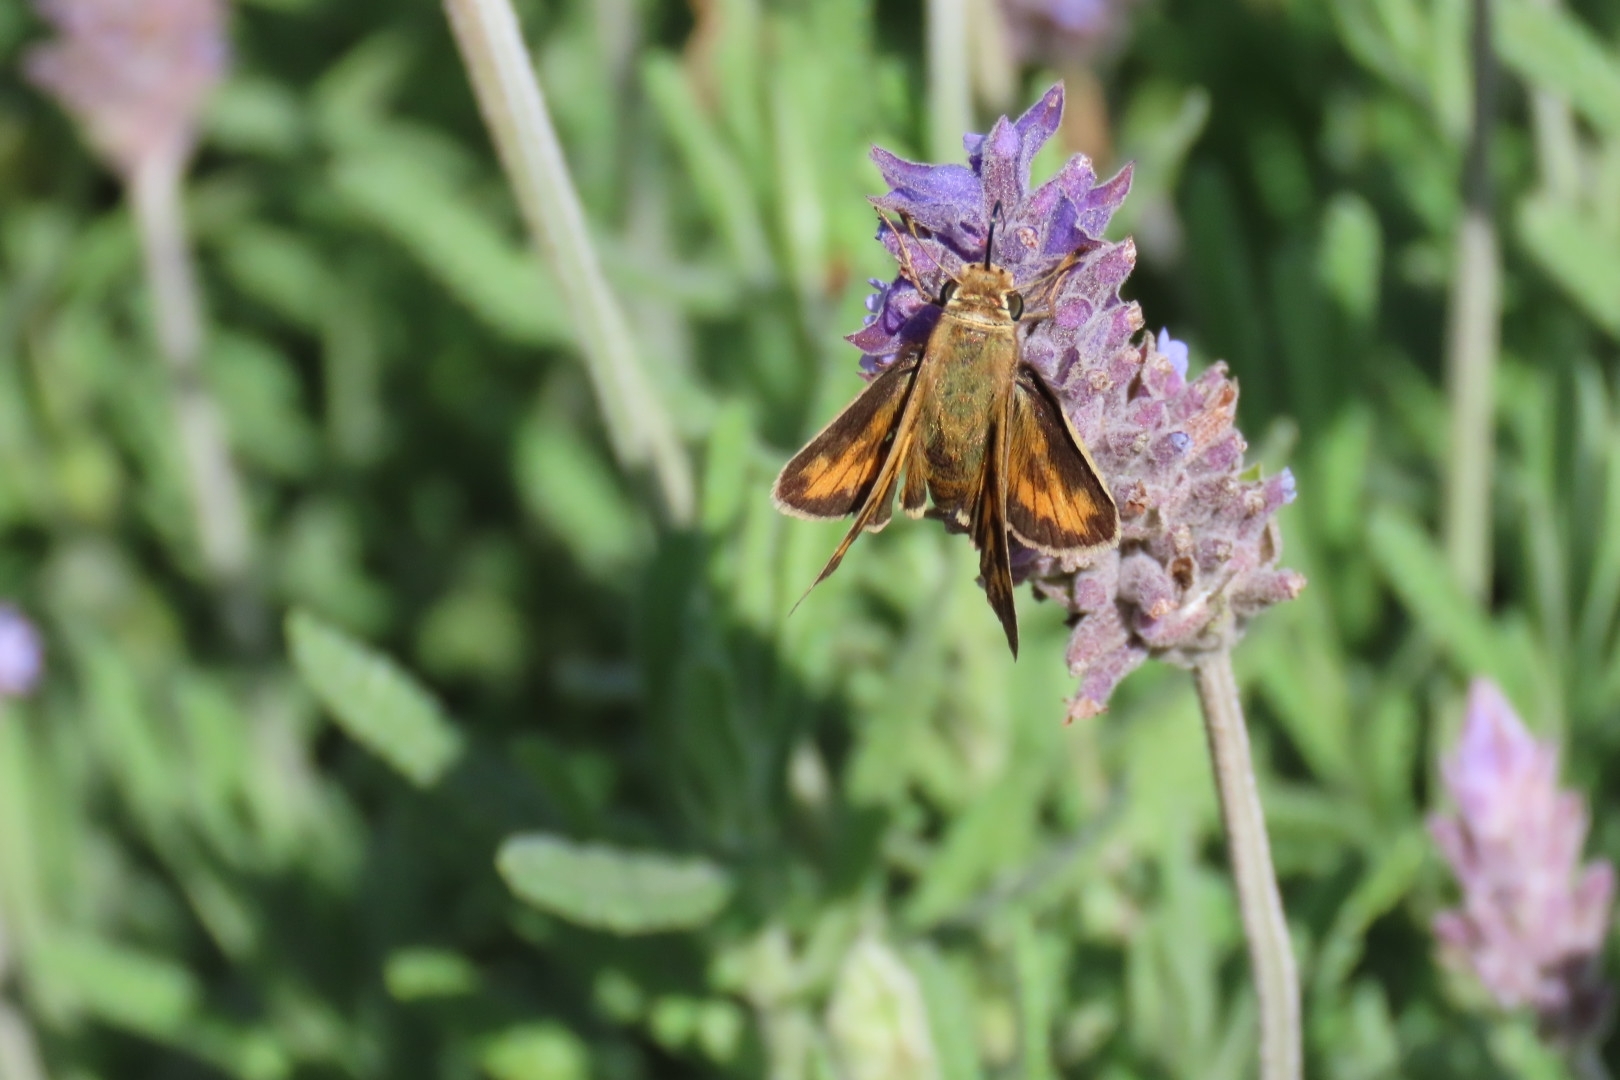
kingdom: Animalia
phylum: Arthropoda
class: Insecta
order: Lepidoptera
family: Hesperiidae
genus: Hylephila
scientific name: Hylephila phyleus
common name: Fiery skipper
